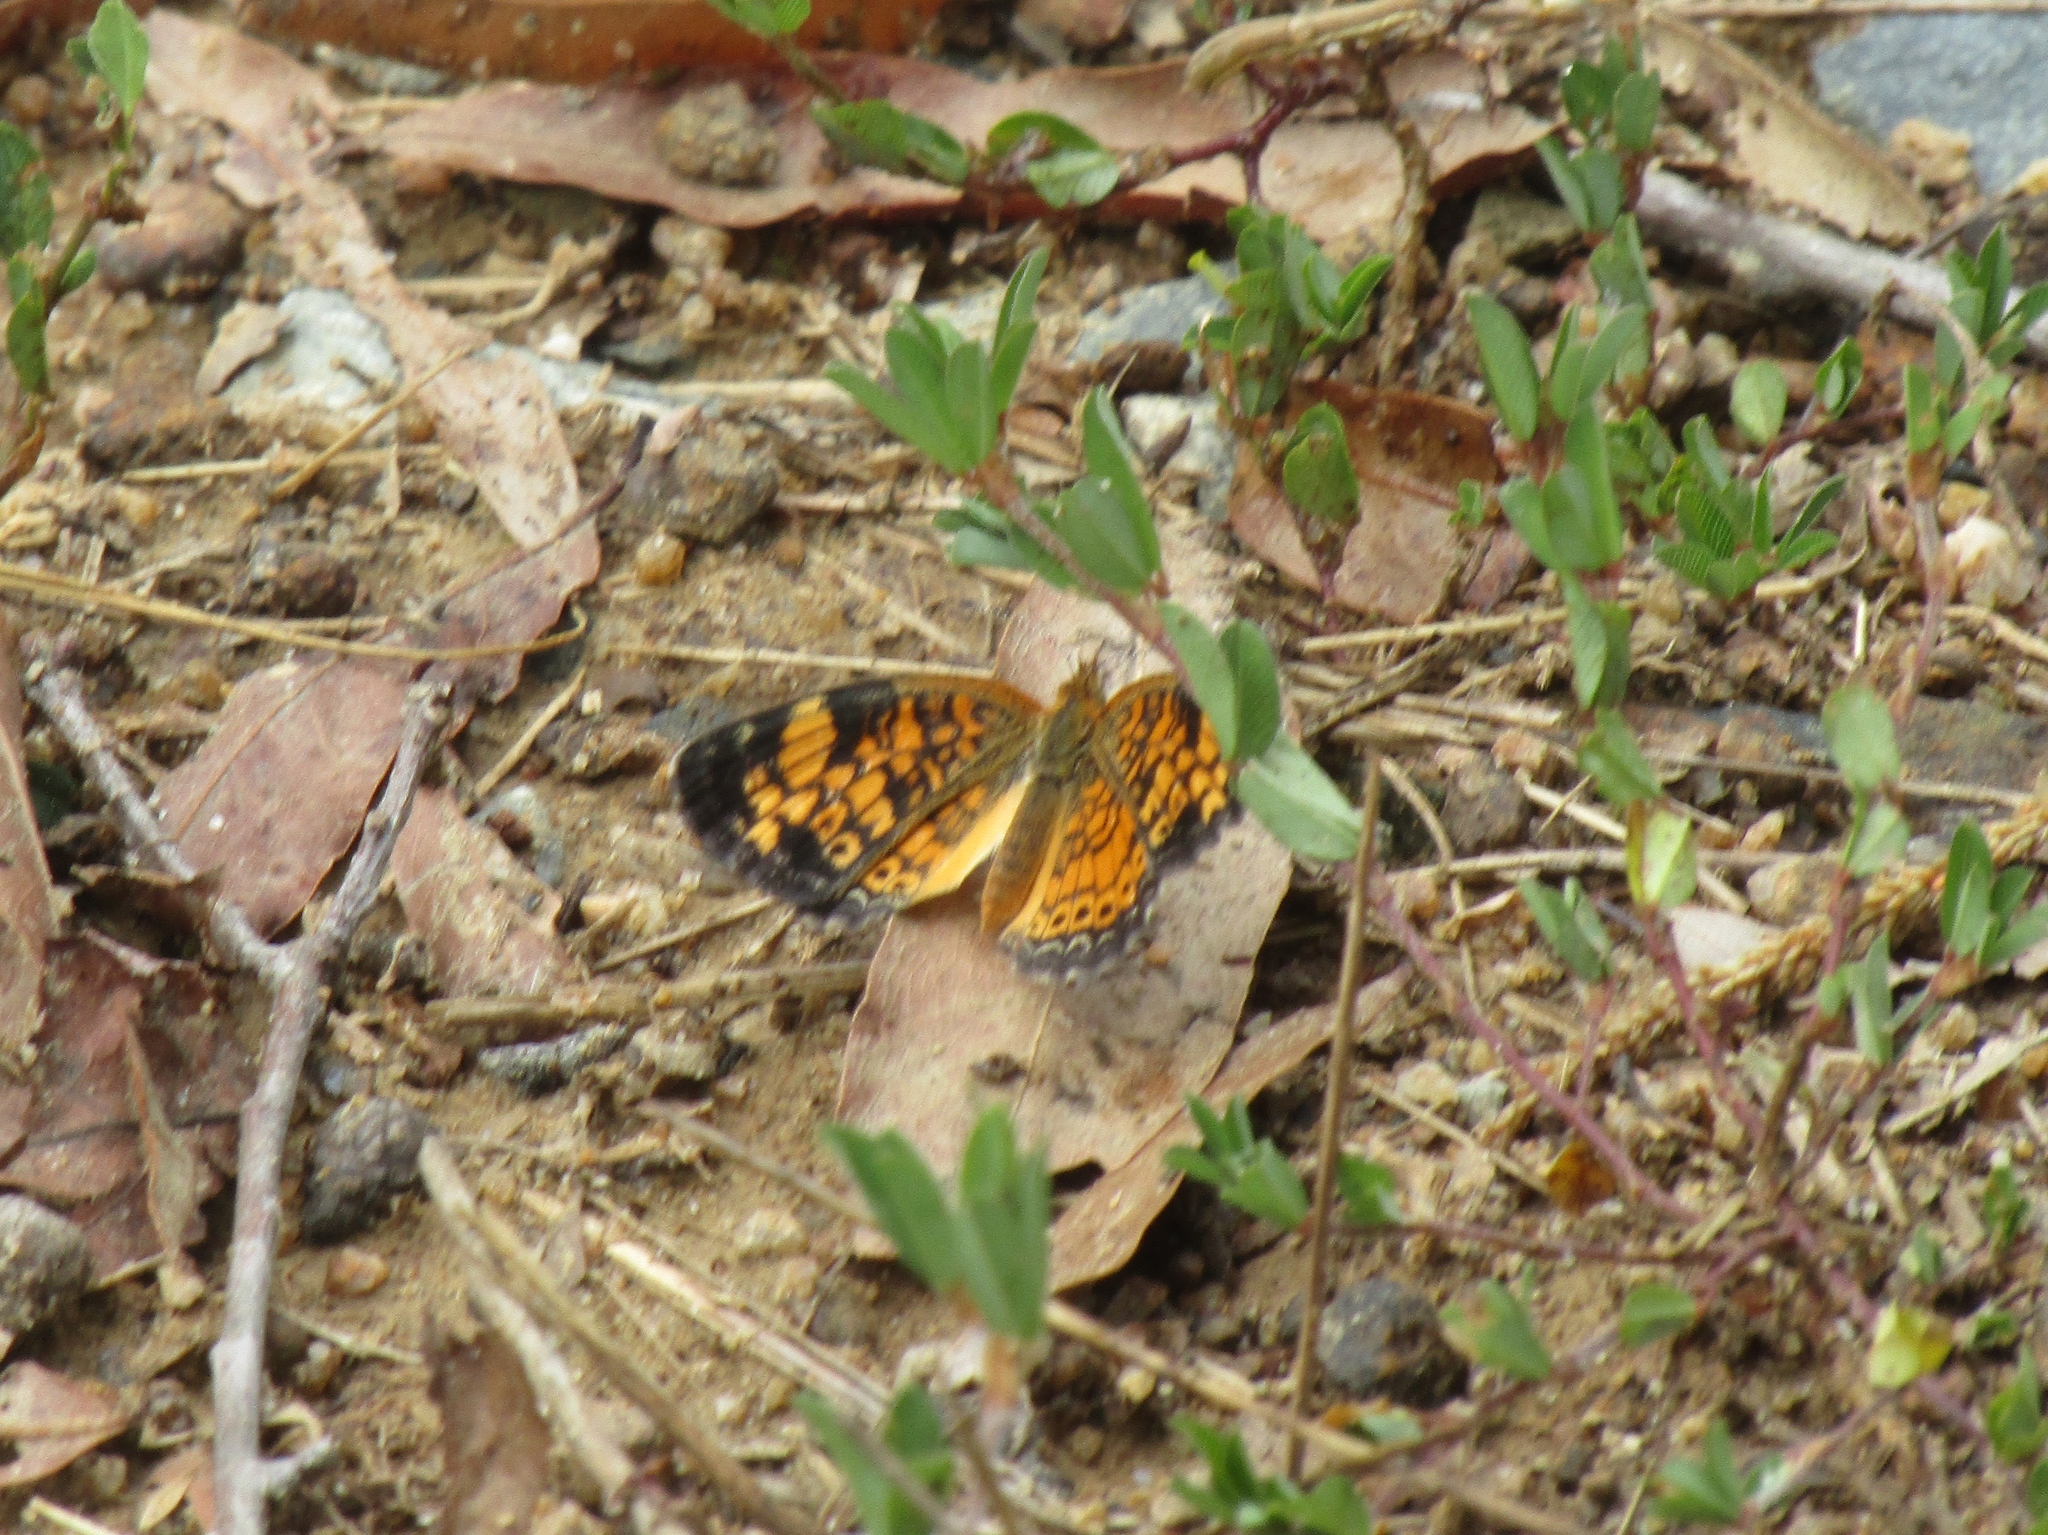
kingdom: Animalia
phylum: Arthropoda
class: Insecta
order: Lepidoptera
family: Nymphalidae
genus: Phyciodes
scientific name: Phyciodes tharos
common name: Pearl crescent
